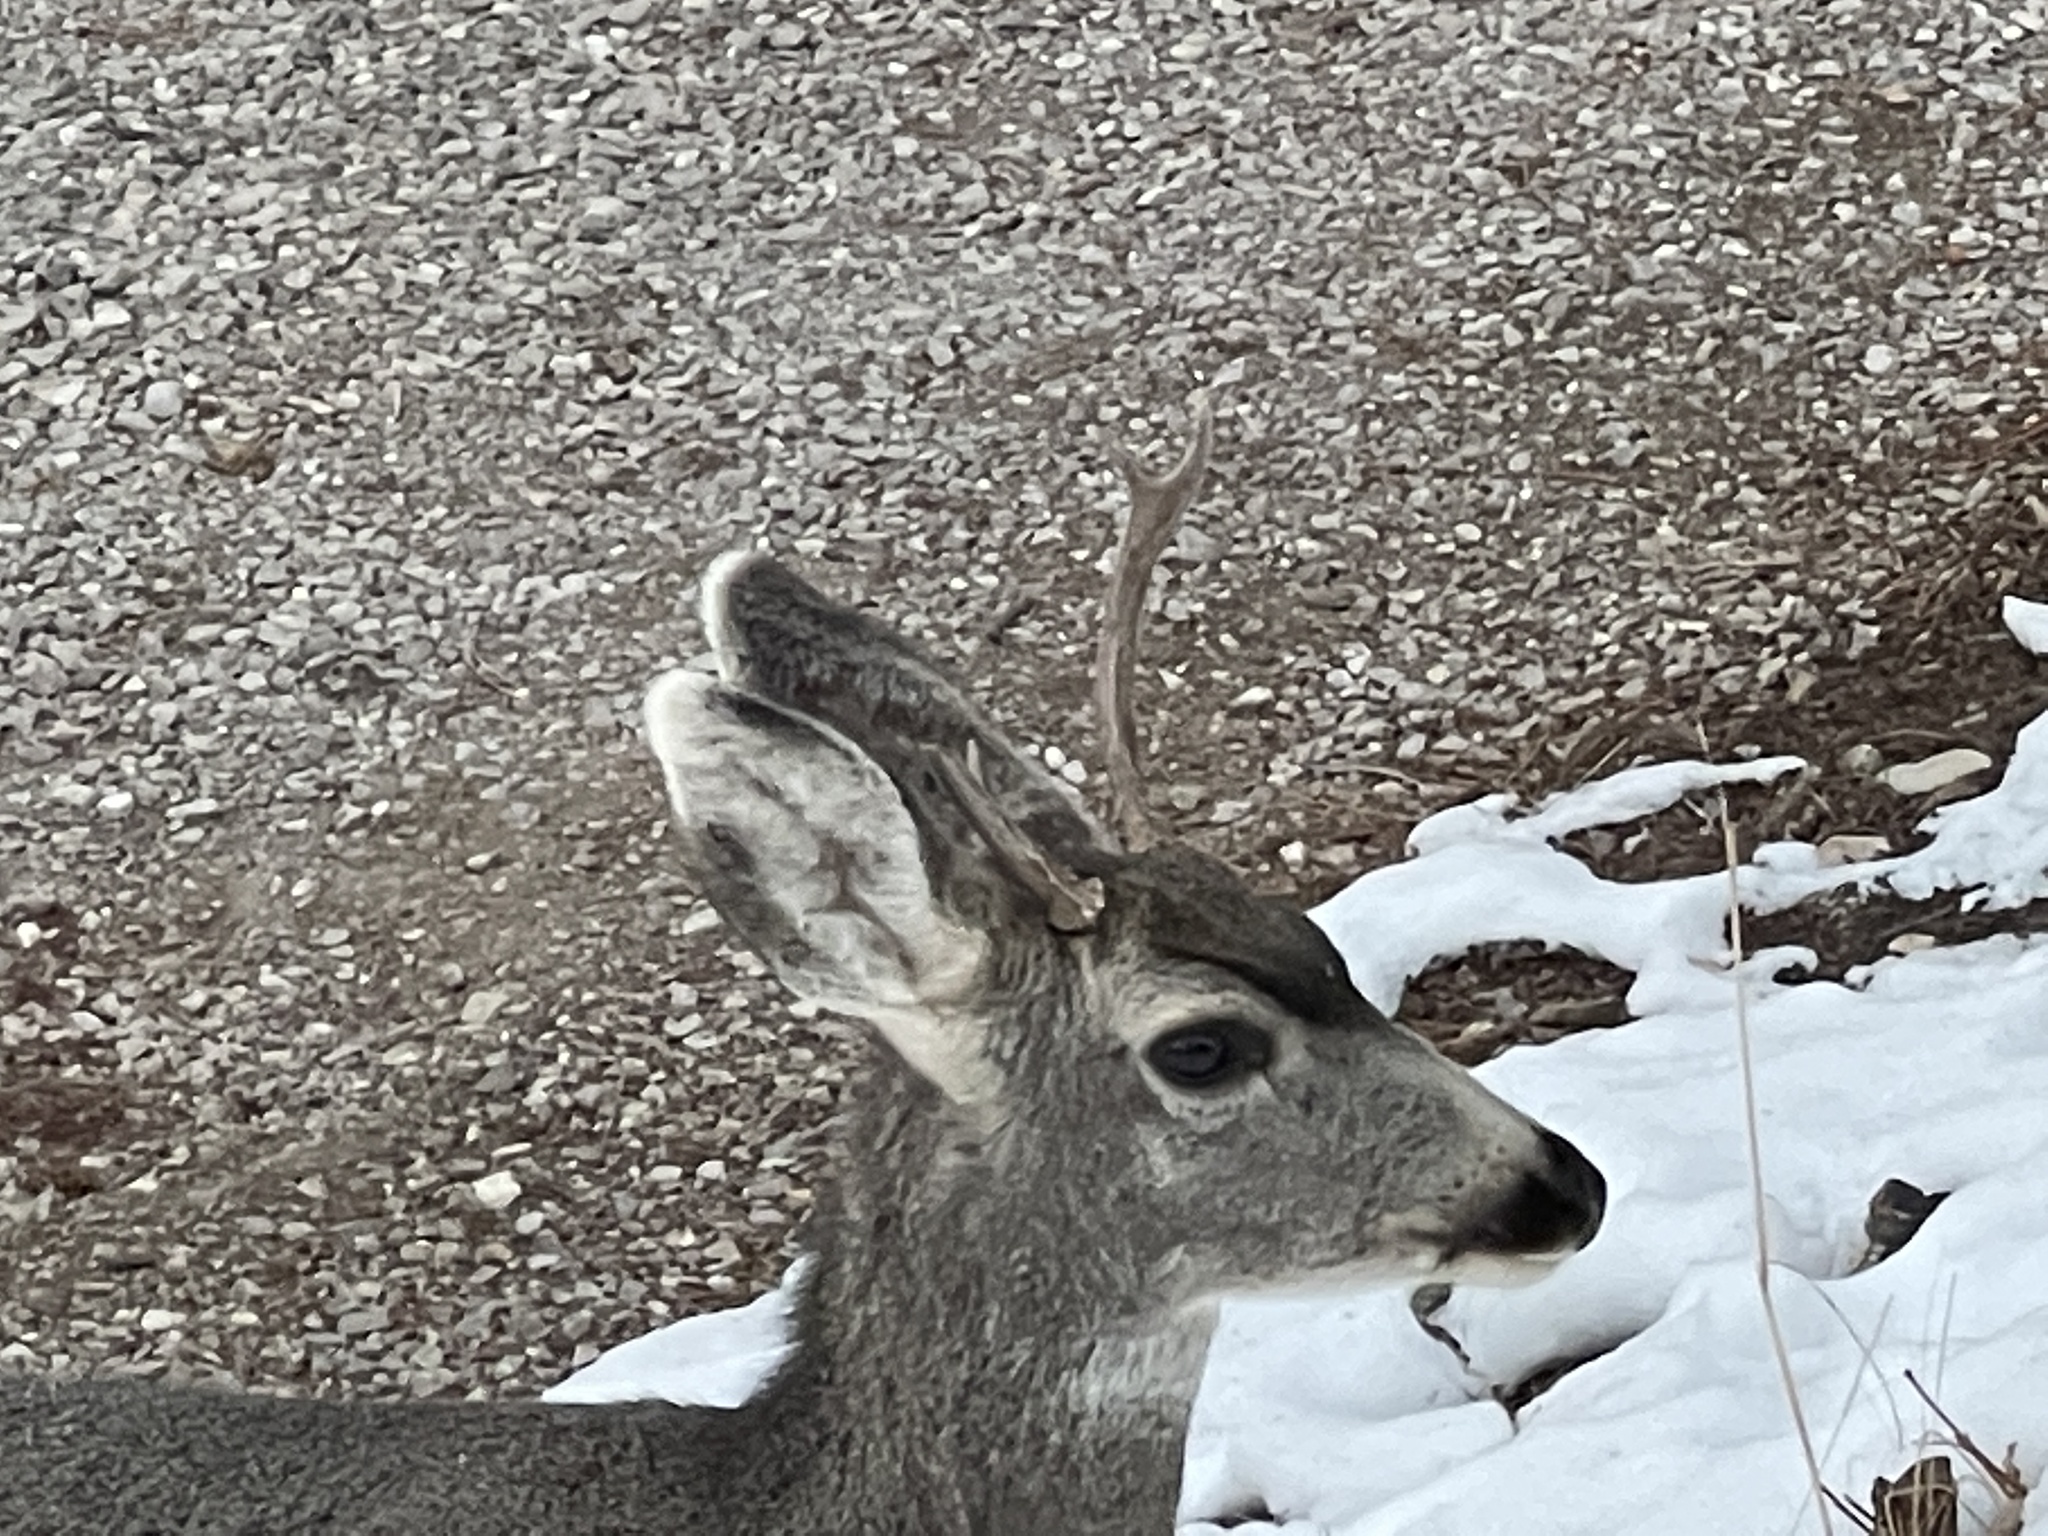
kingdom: Animalia
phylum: Chordata
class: Mammalia
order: Artiodactyla
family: Cervidae
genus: Odocoileus
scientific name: Odocoileus hemionus
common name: Mule deer
